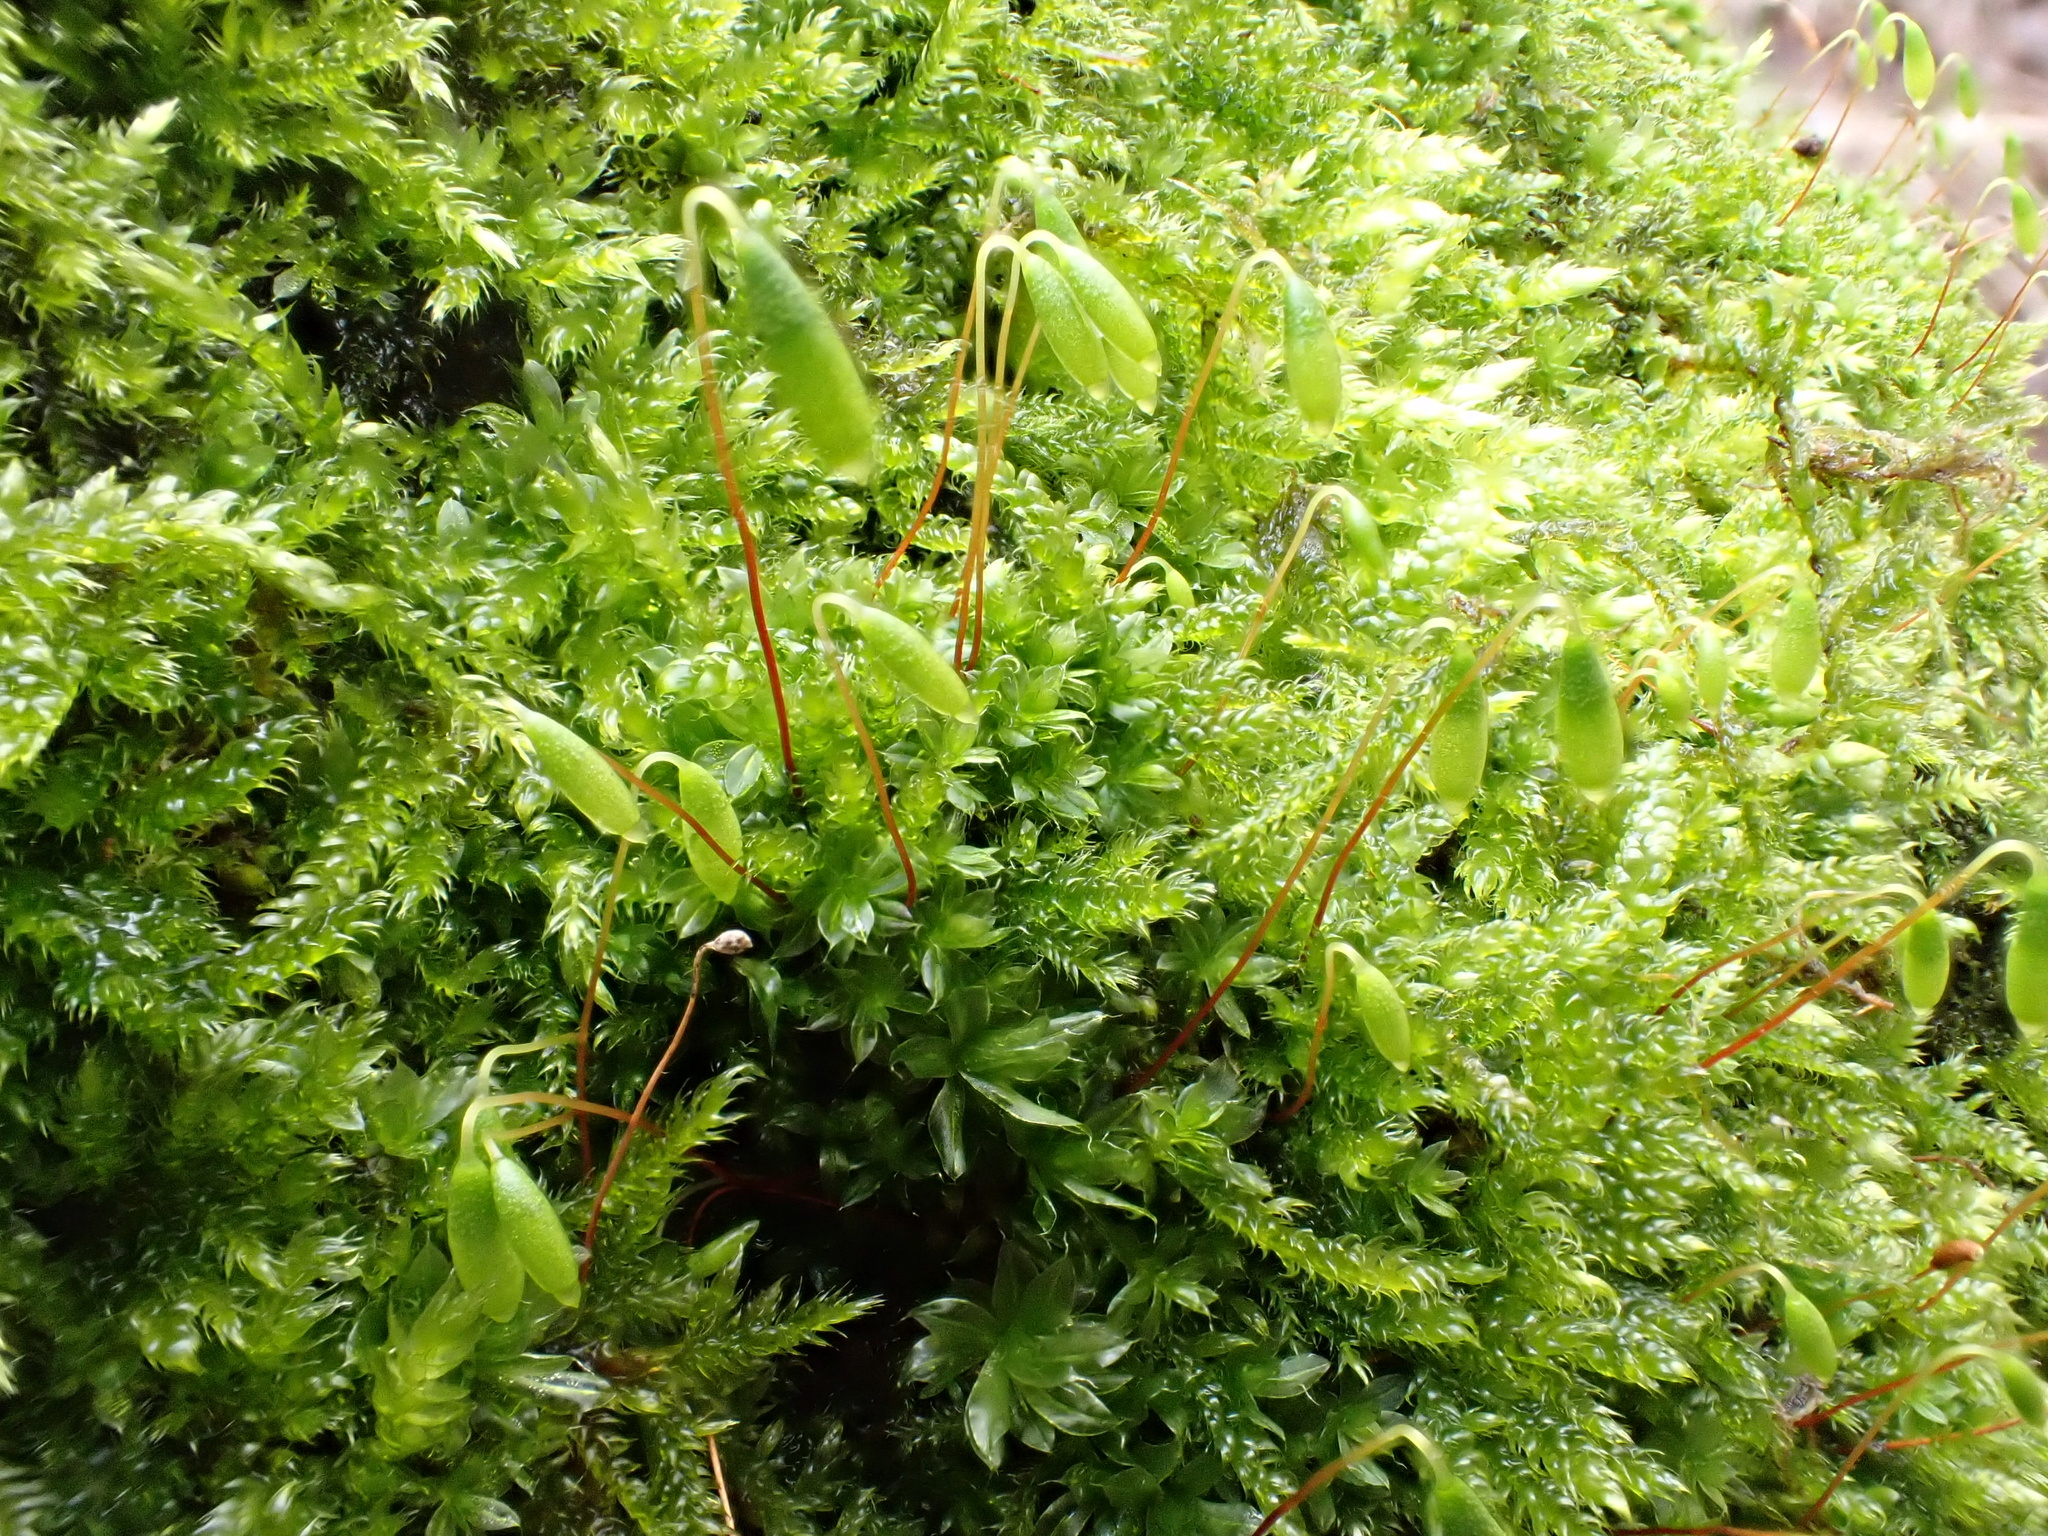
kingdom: Plantae
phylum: Bryophyta
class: Bryopsida
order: Bryales
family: Bryaceae
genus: Rosulabryum
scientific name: Rosulabryum capillare
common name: Capillary thread-moss
